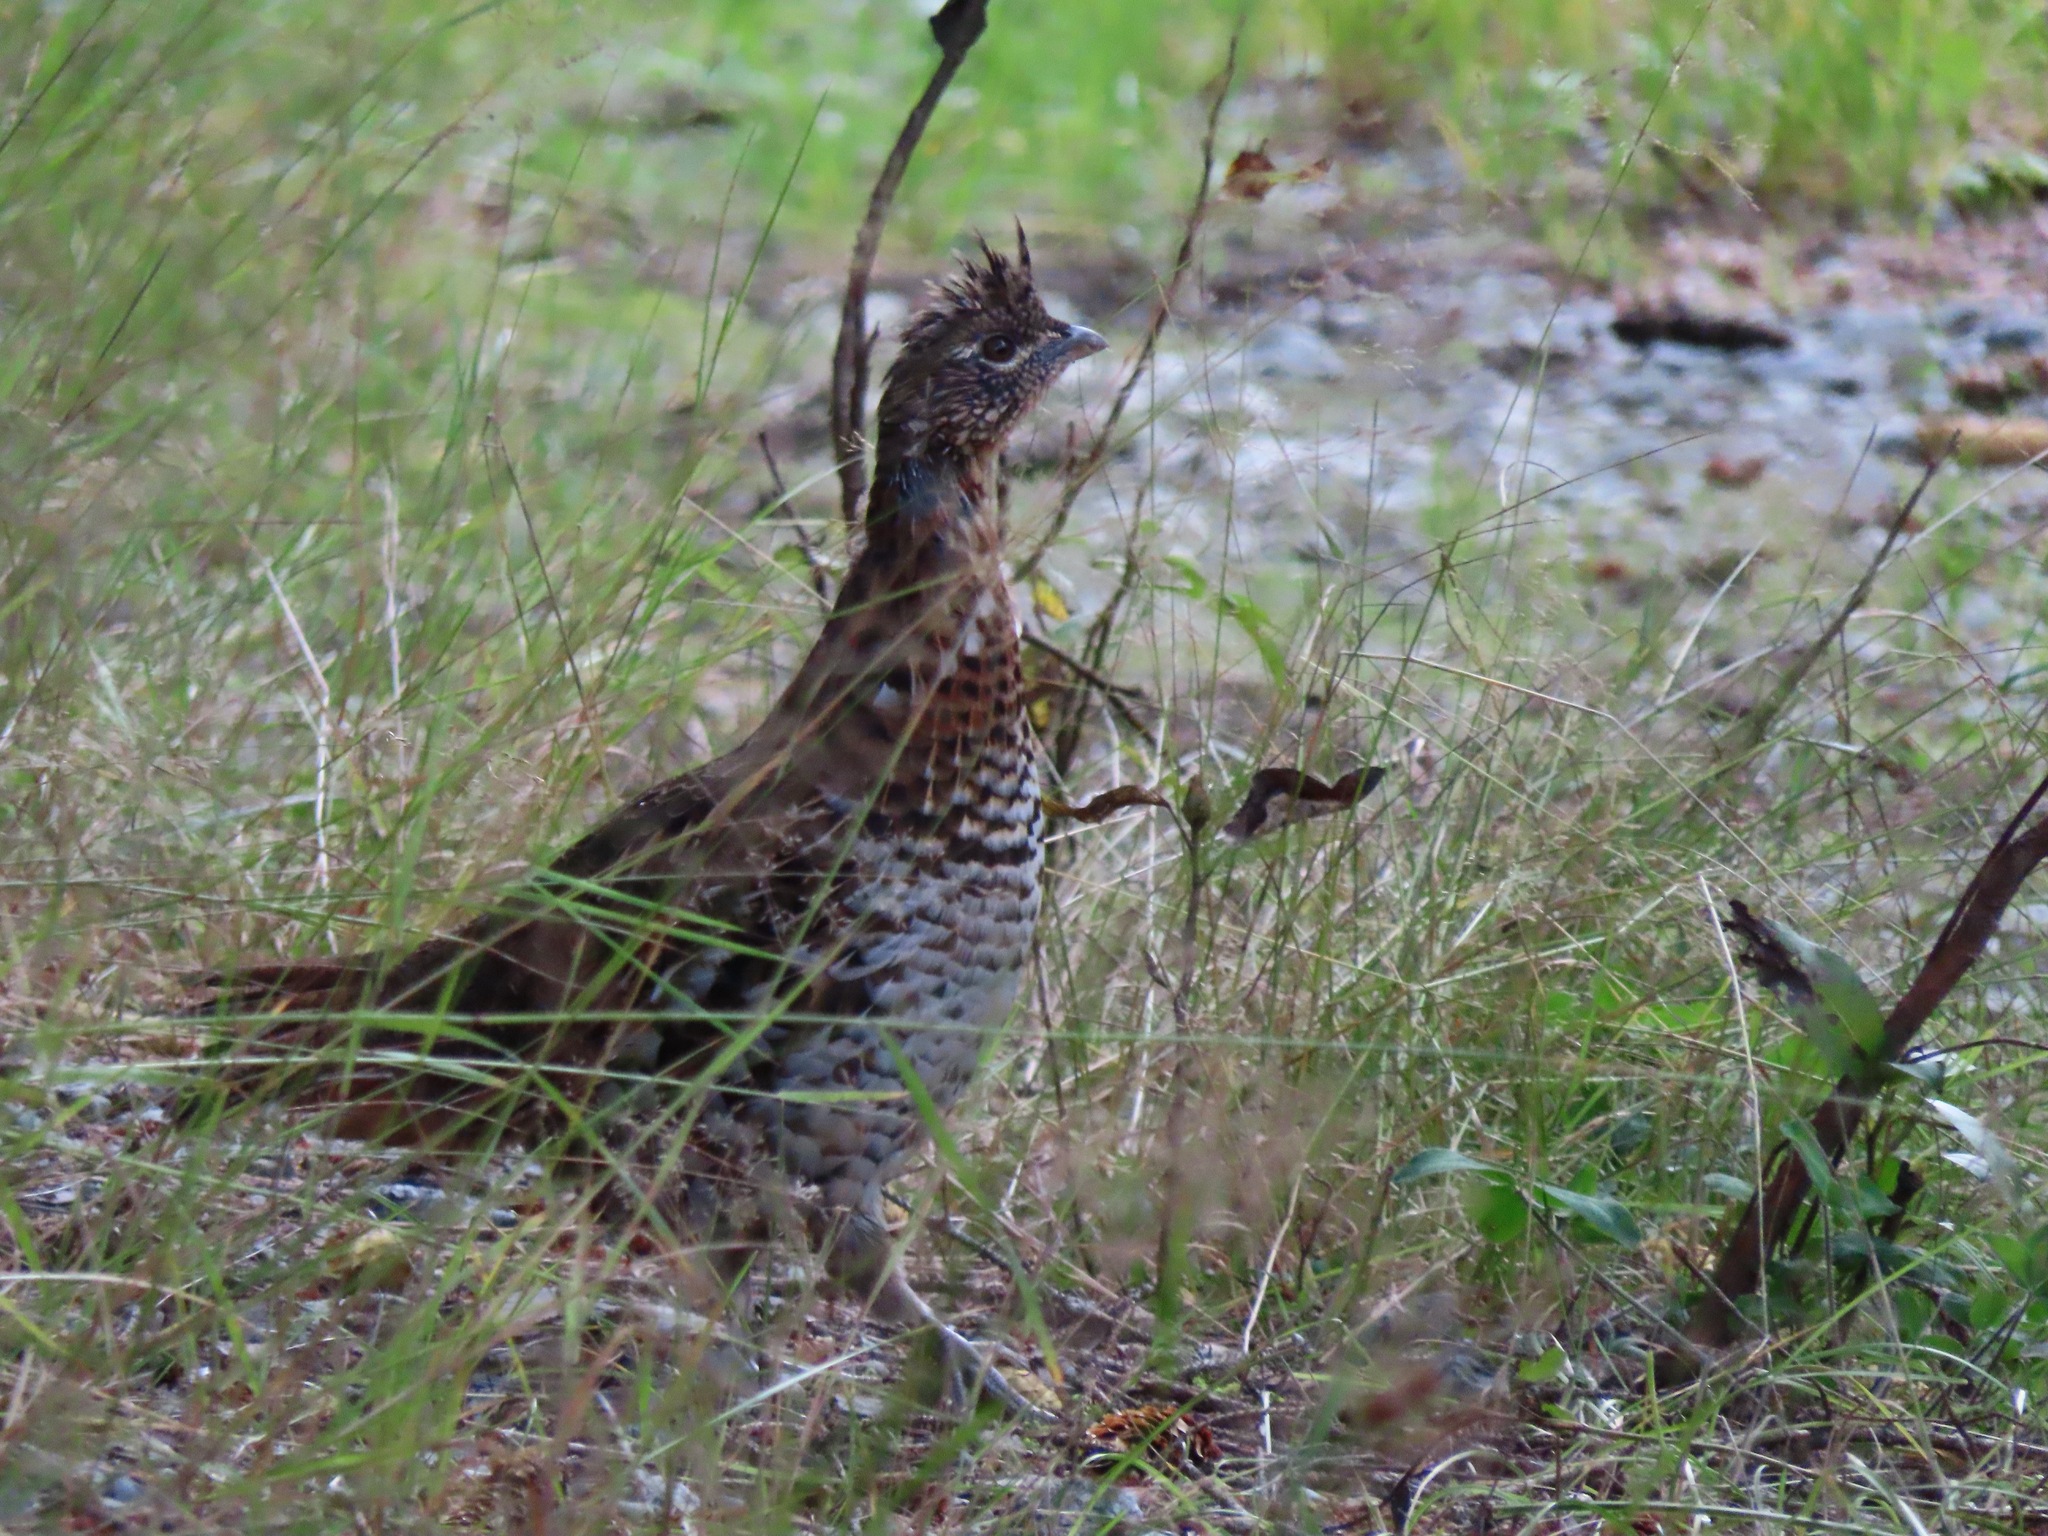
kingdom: Animalia
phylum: Chordata
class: Aves
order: Galliformes
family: Phasianidae
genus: Bonasa
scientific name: Bonasa umbellus
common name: Ruffed grouse
